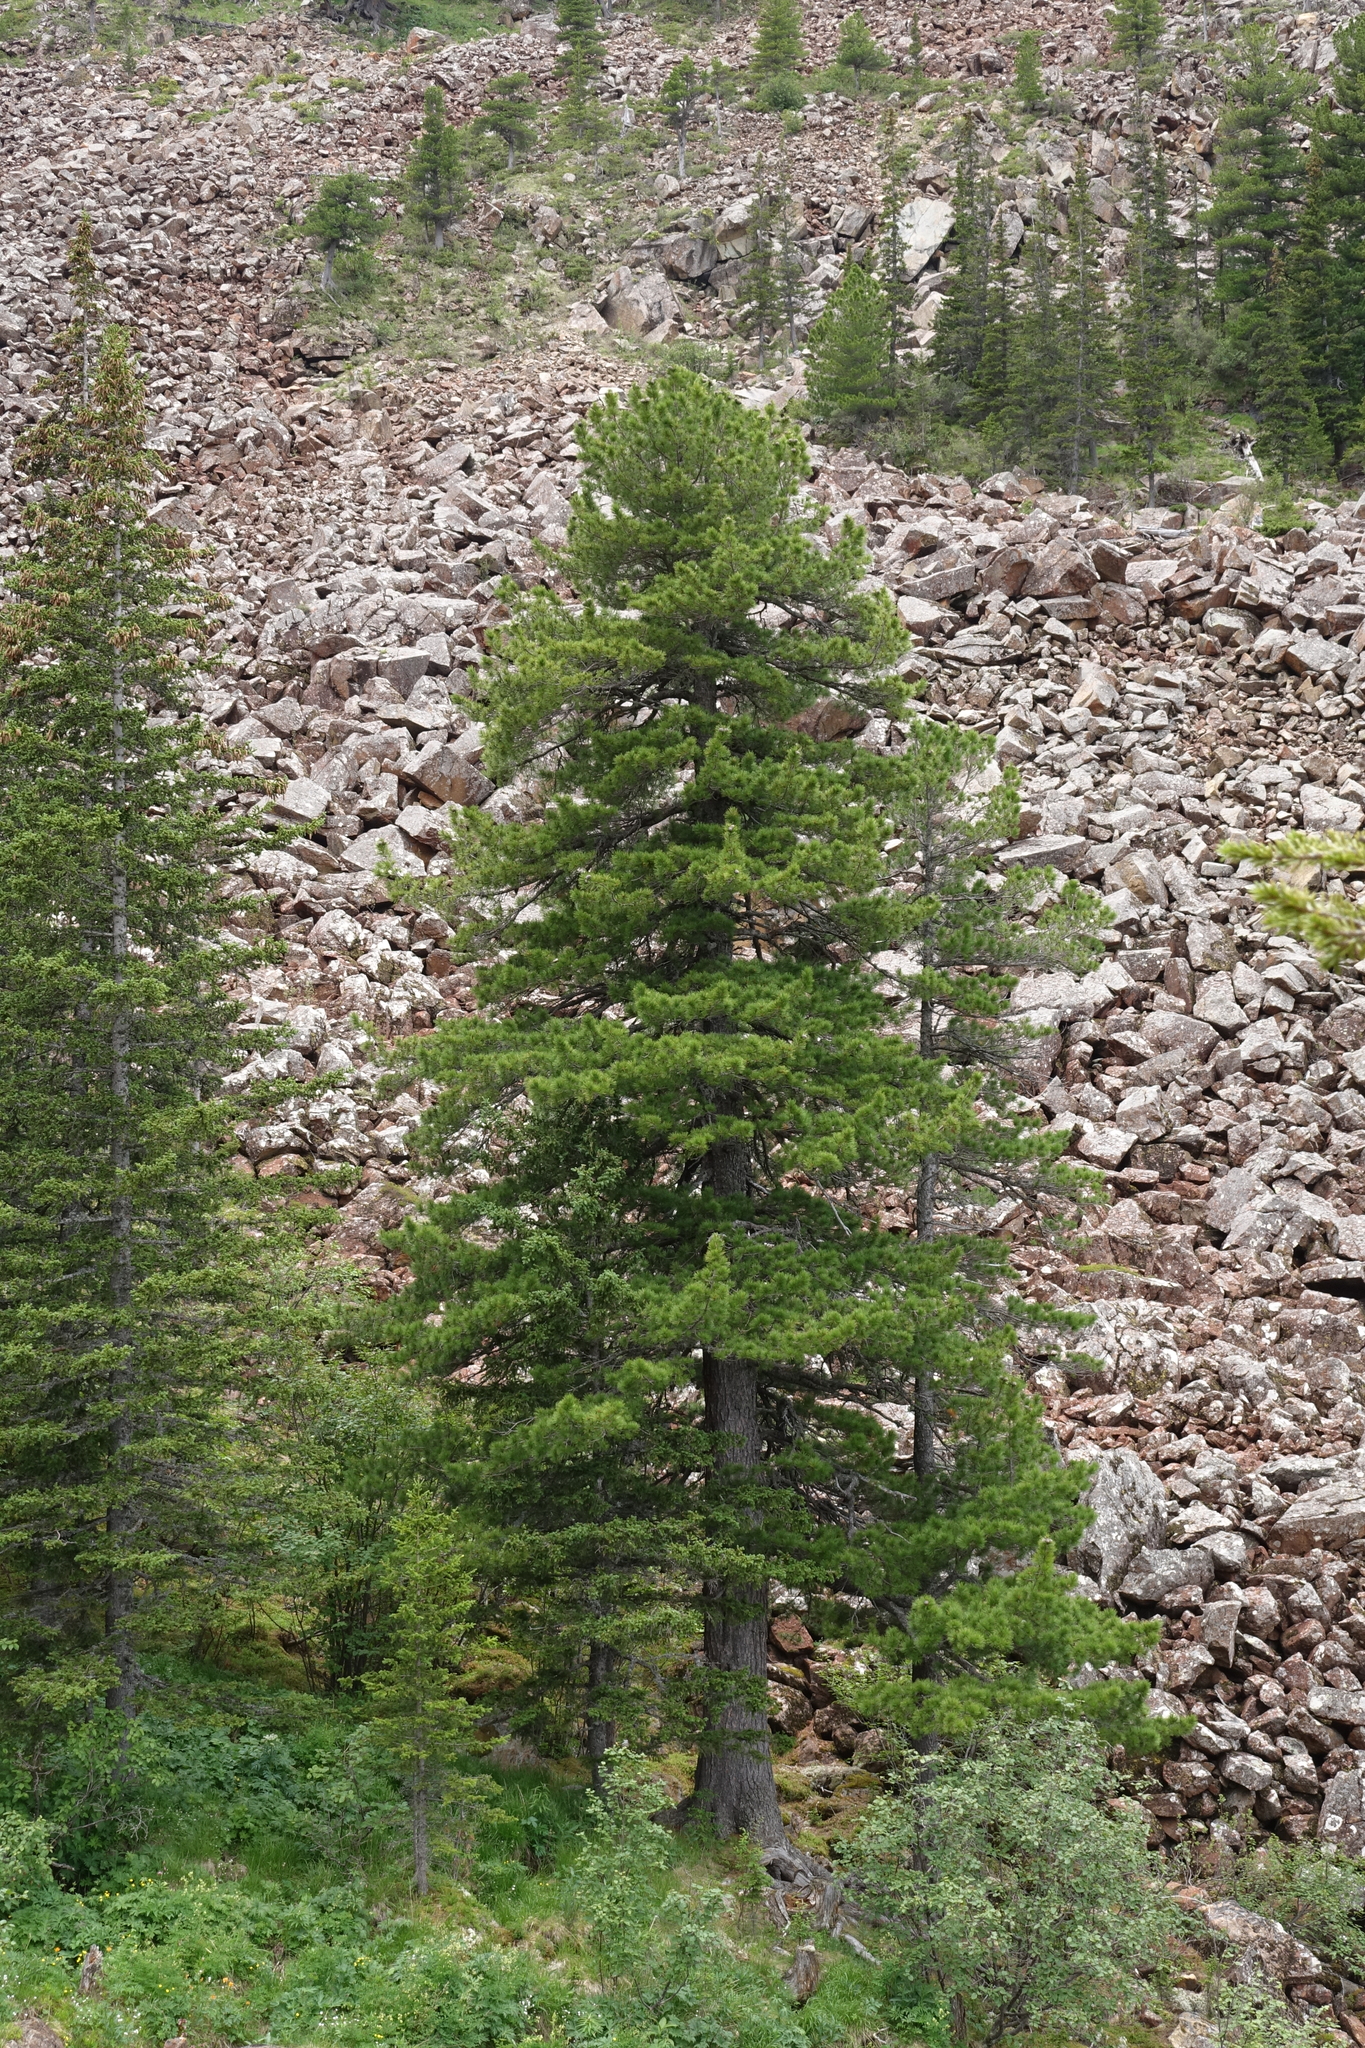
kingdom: Plantae
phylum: Tracheophyta
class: Pinopsida
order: Pinales
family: Pinaceae
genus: Pinus
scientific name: Pinus sibirica
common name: Siberian pine
